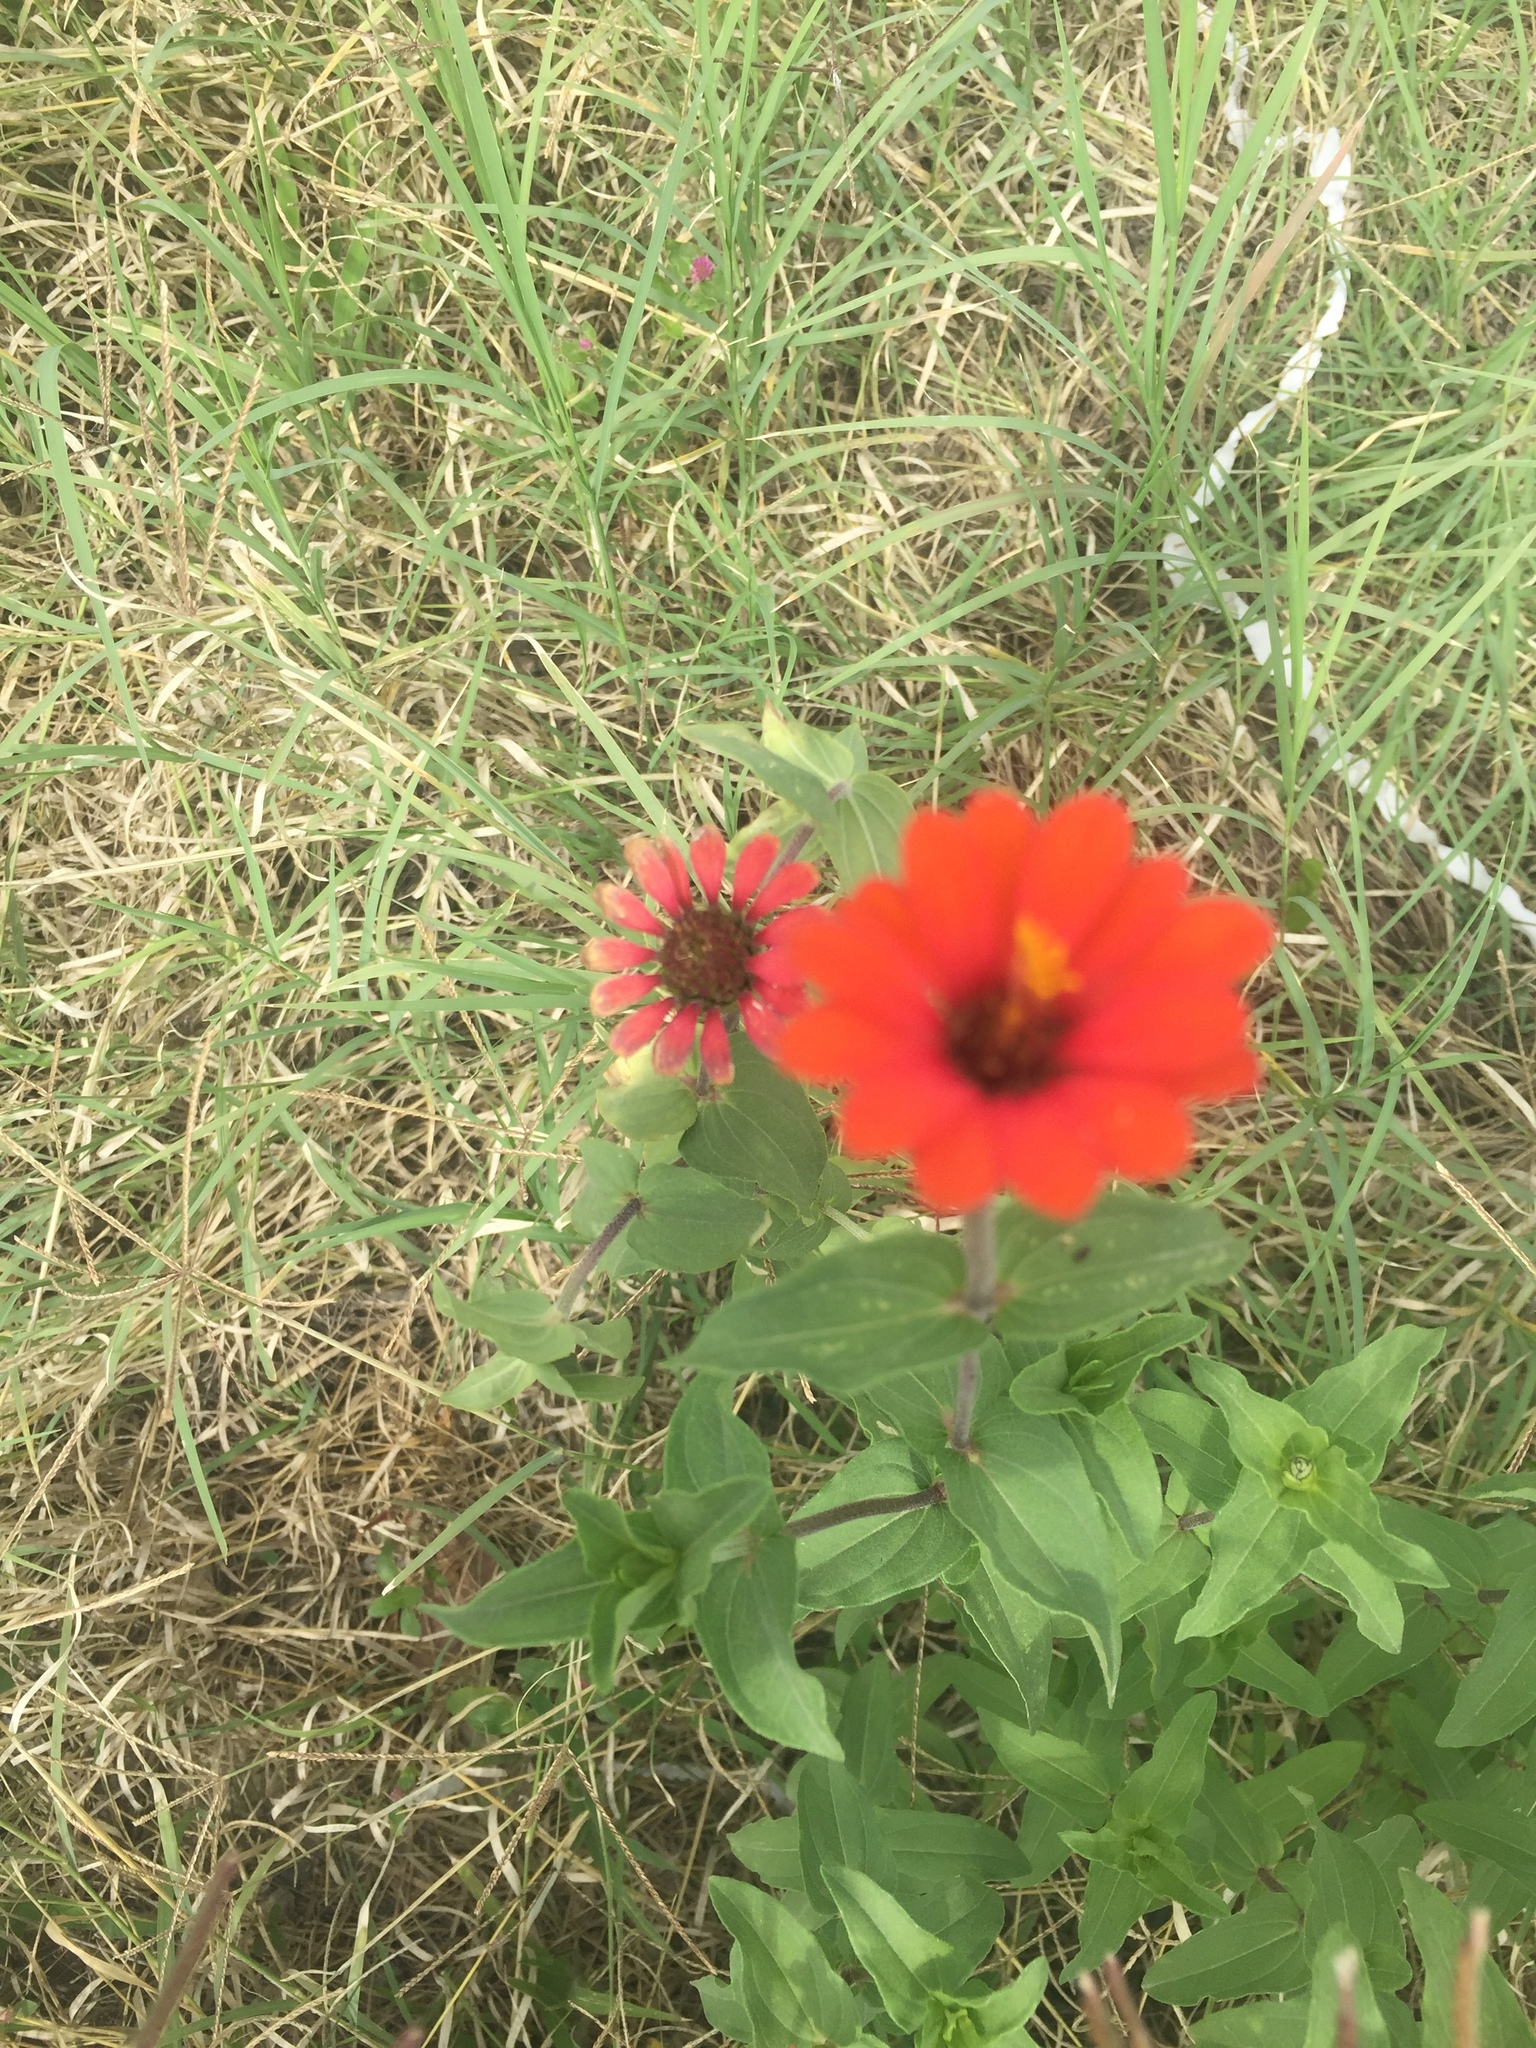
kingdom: Plantae
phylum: Tracheophyta
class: Magnoliopsida
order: Asterales
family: Asteraceae
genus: Zinnia
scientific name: Zinnia peruviana
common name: Peruvian zinnia
